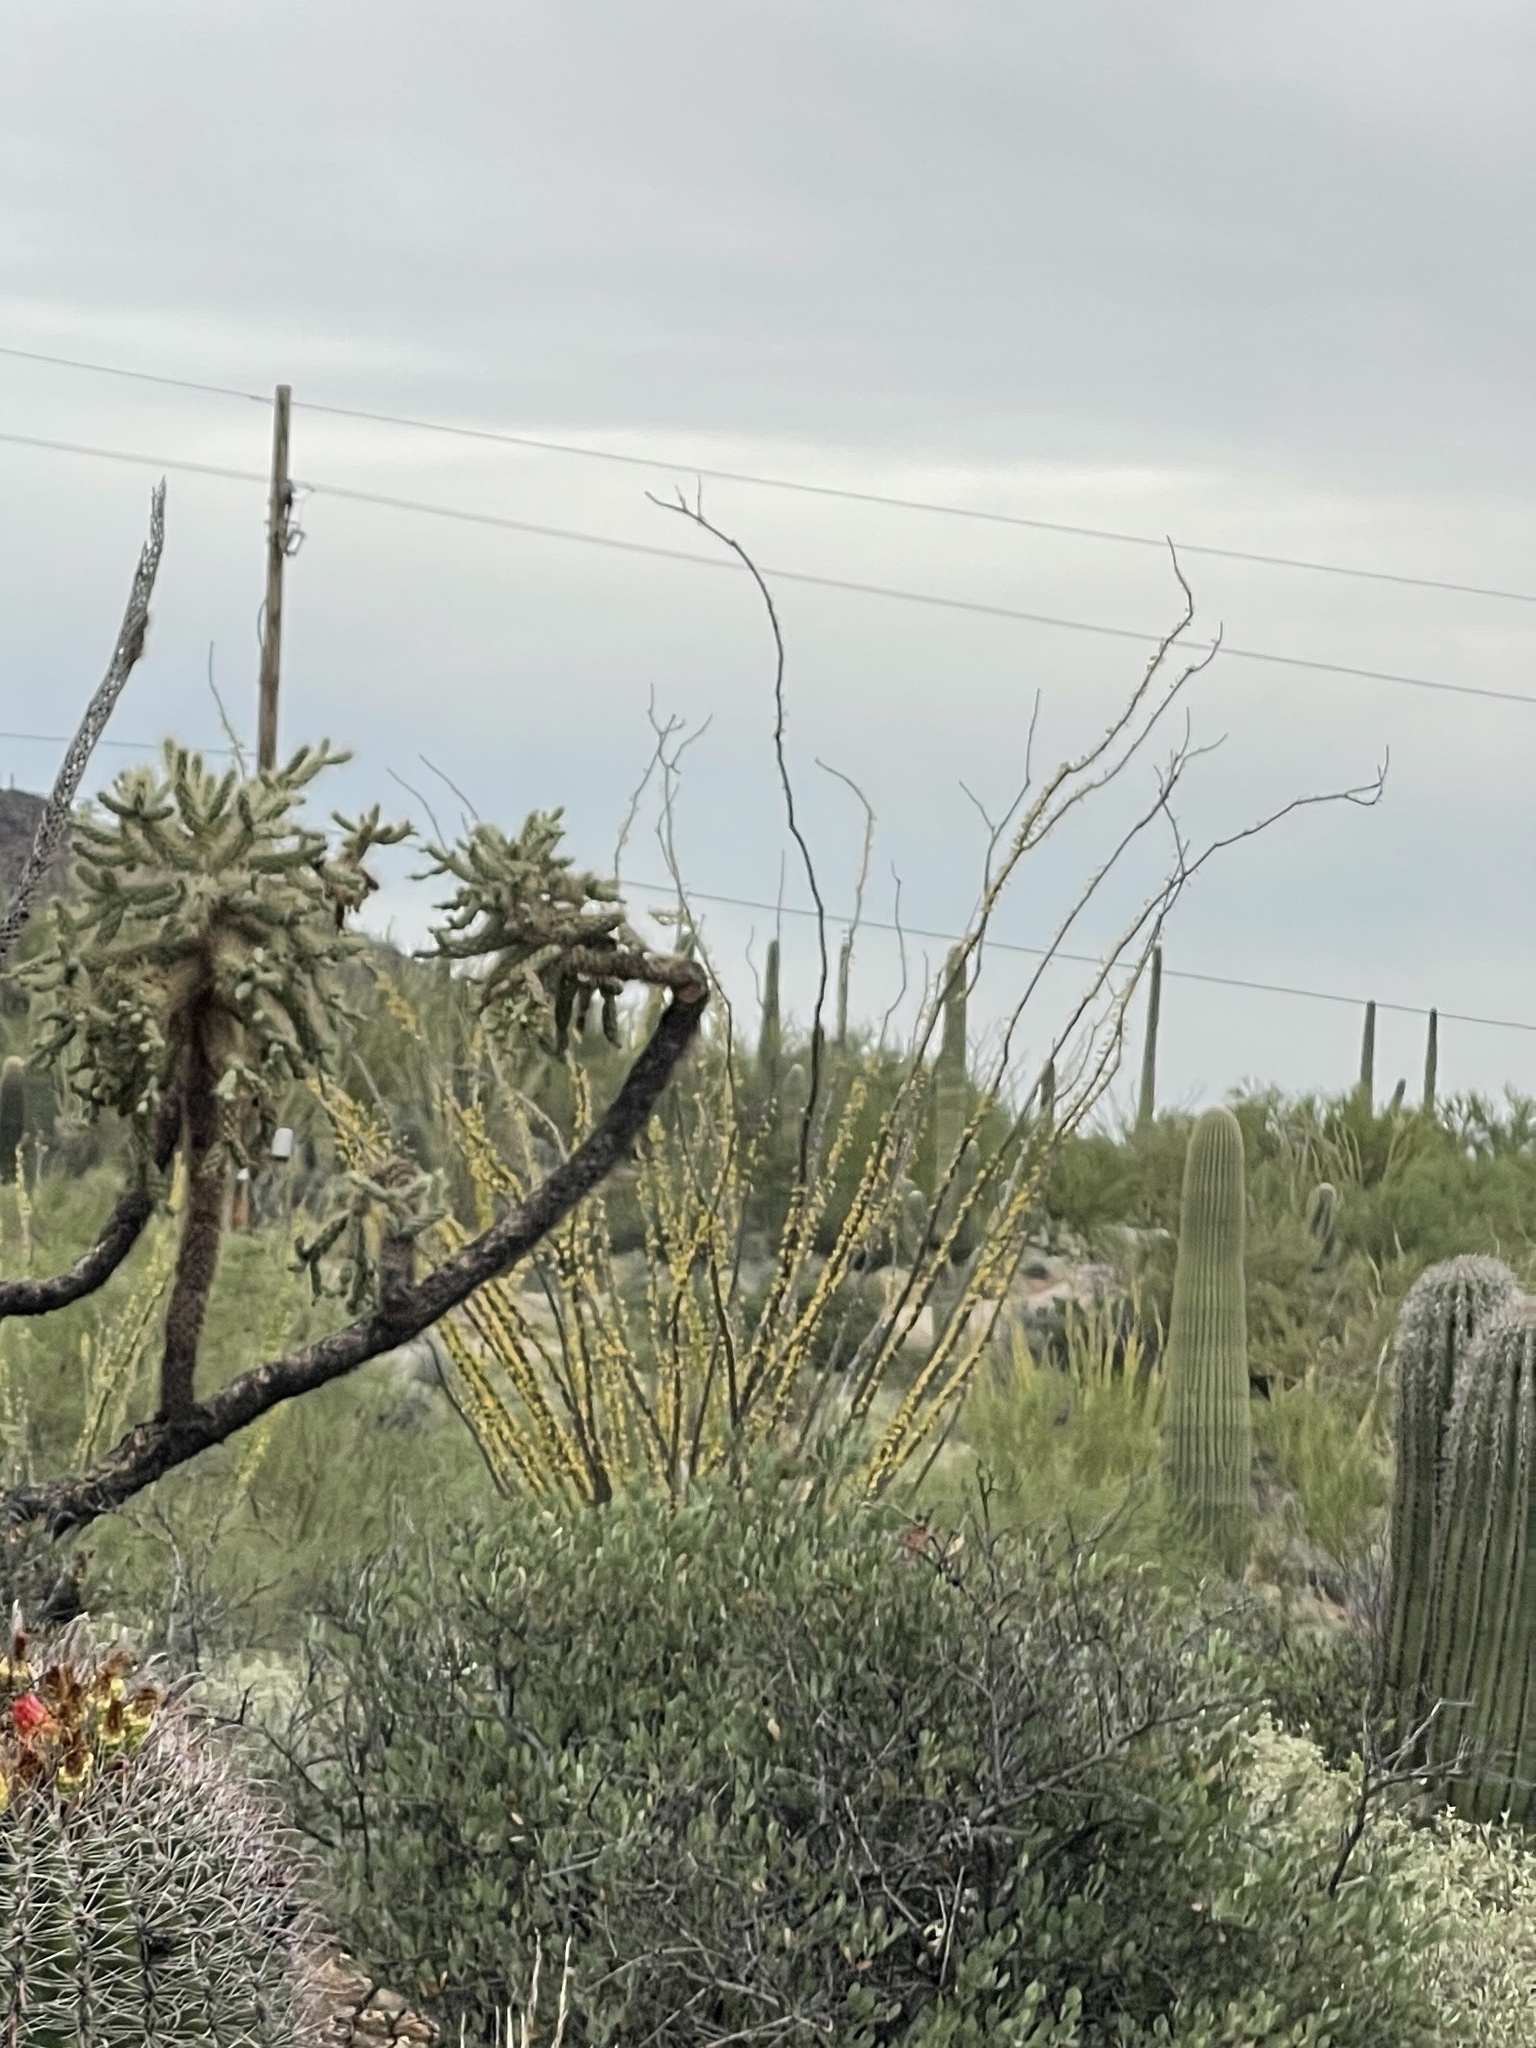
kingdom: Plantae
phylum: Tracheophyta
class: Magnoliopsida
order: Ericales
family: Fouquieriaceae
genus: Fouquieria
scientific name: Fouquieria splendens
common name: Vine-cactus
